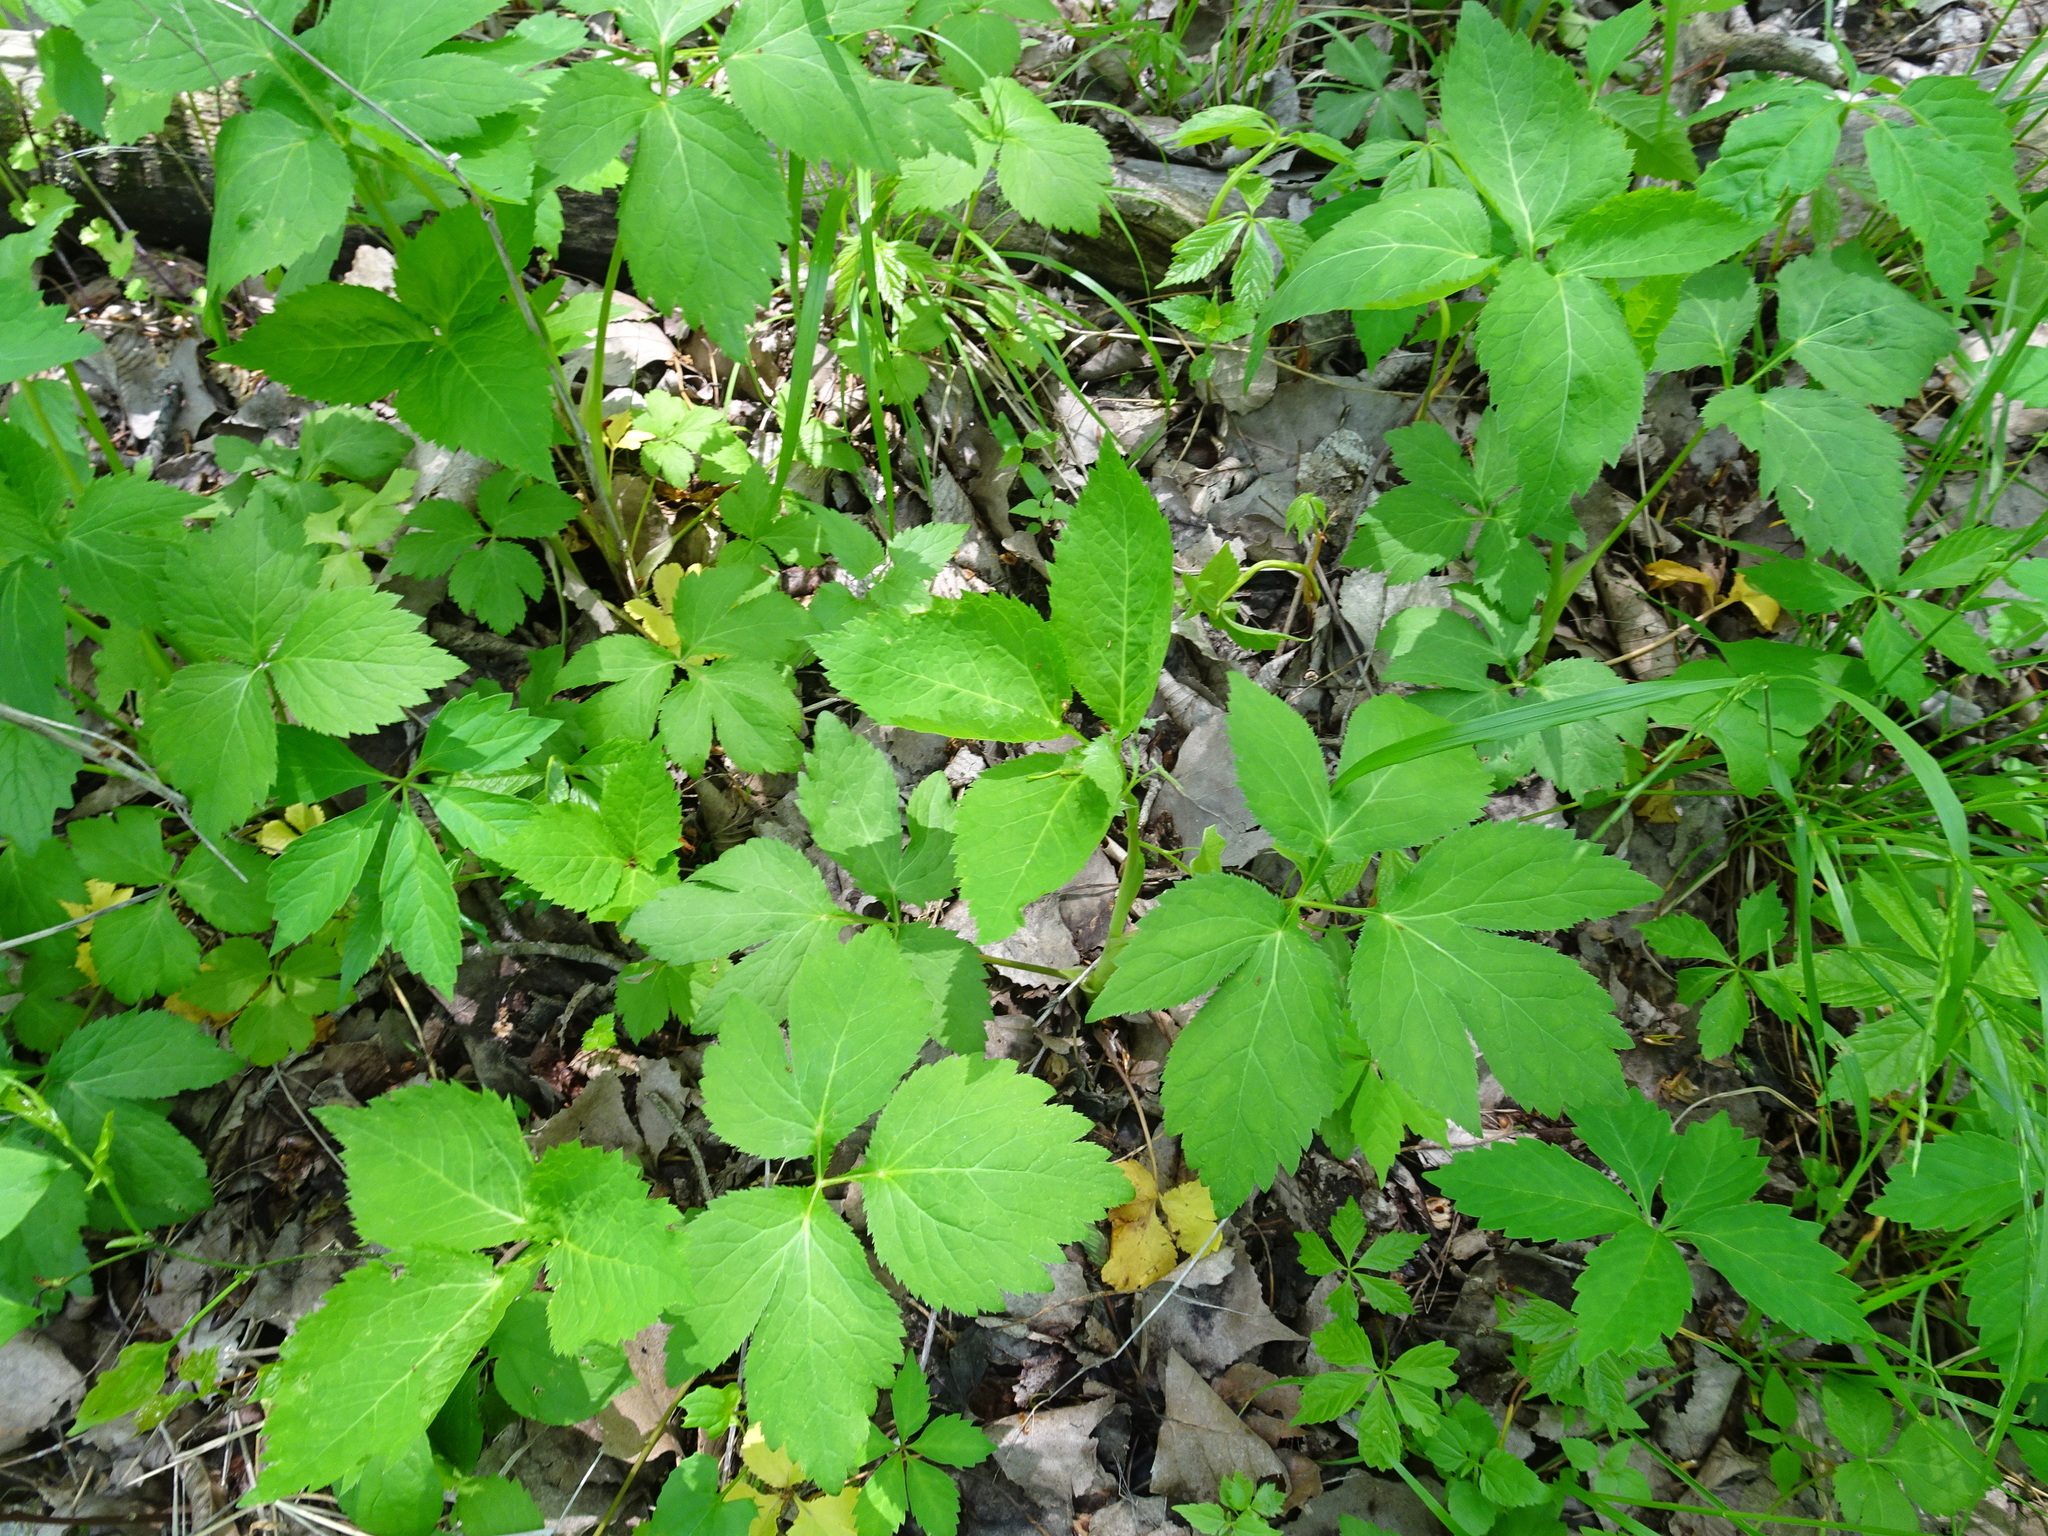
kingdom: Plantae
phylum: Tracheophyta
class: Magnoliopsida
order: Apiales
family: Apiaceae
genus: Cryptotaenia
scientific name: Cryptotaenia canadensis
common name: Honewort
